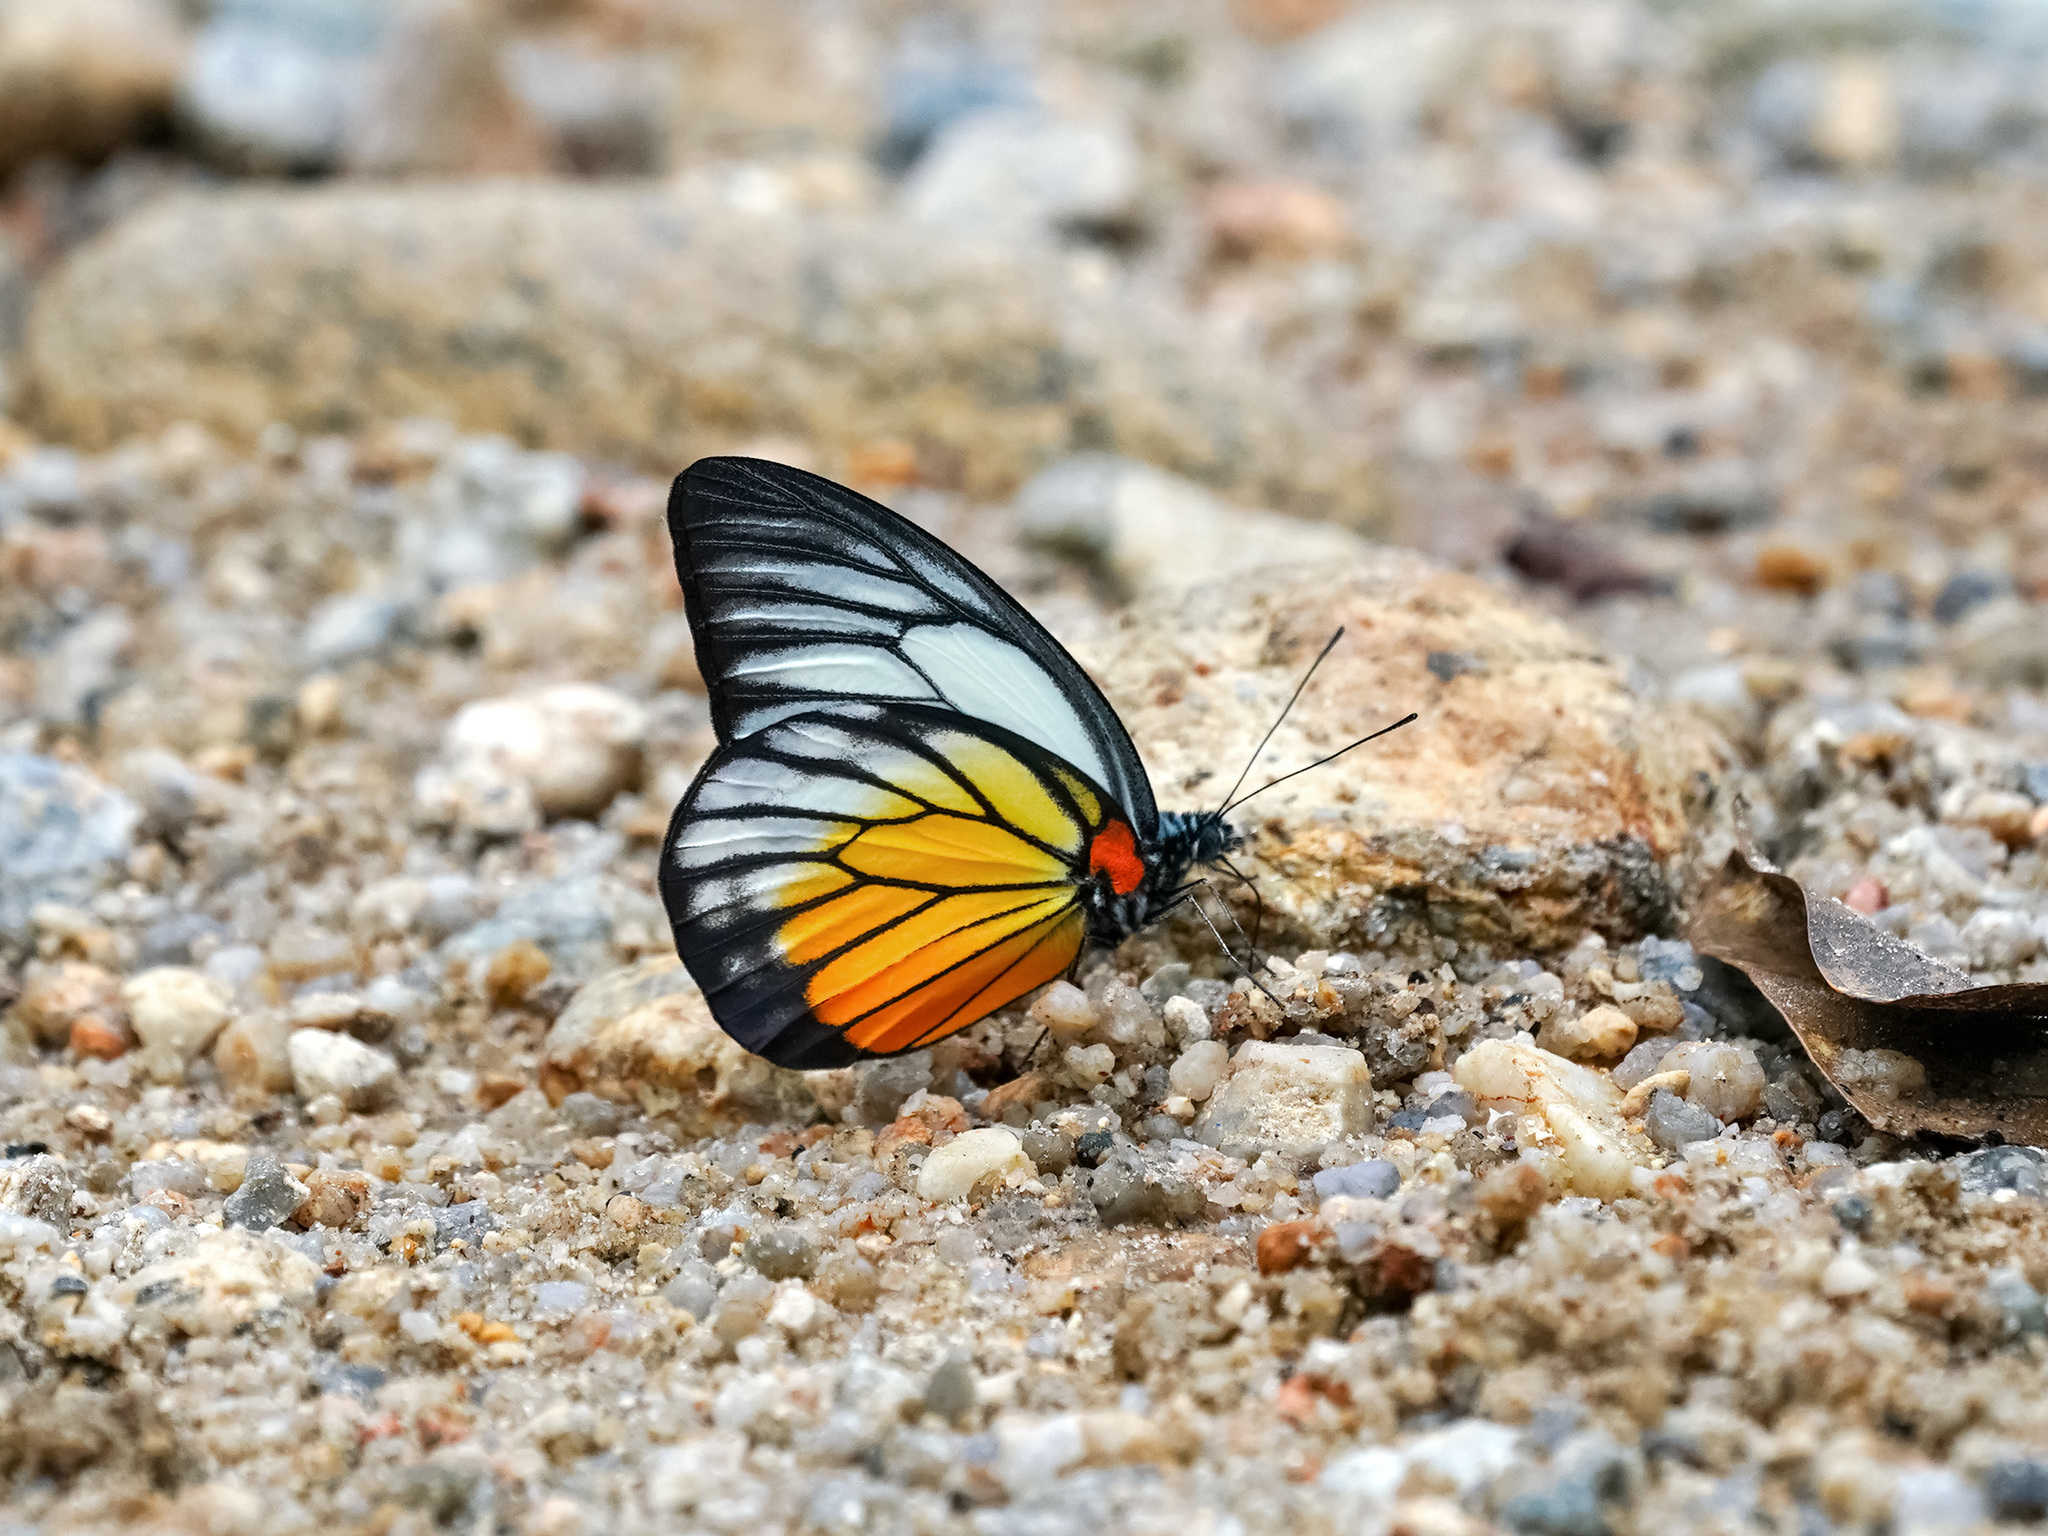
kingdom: Animalia
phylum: Arthropoda
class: Insecta
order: Lepidoptera
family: Pieridae
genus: Prioneris
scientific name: Prioneris philonome
